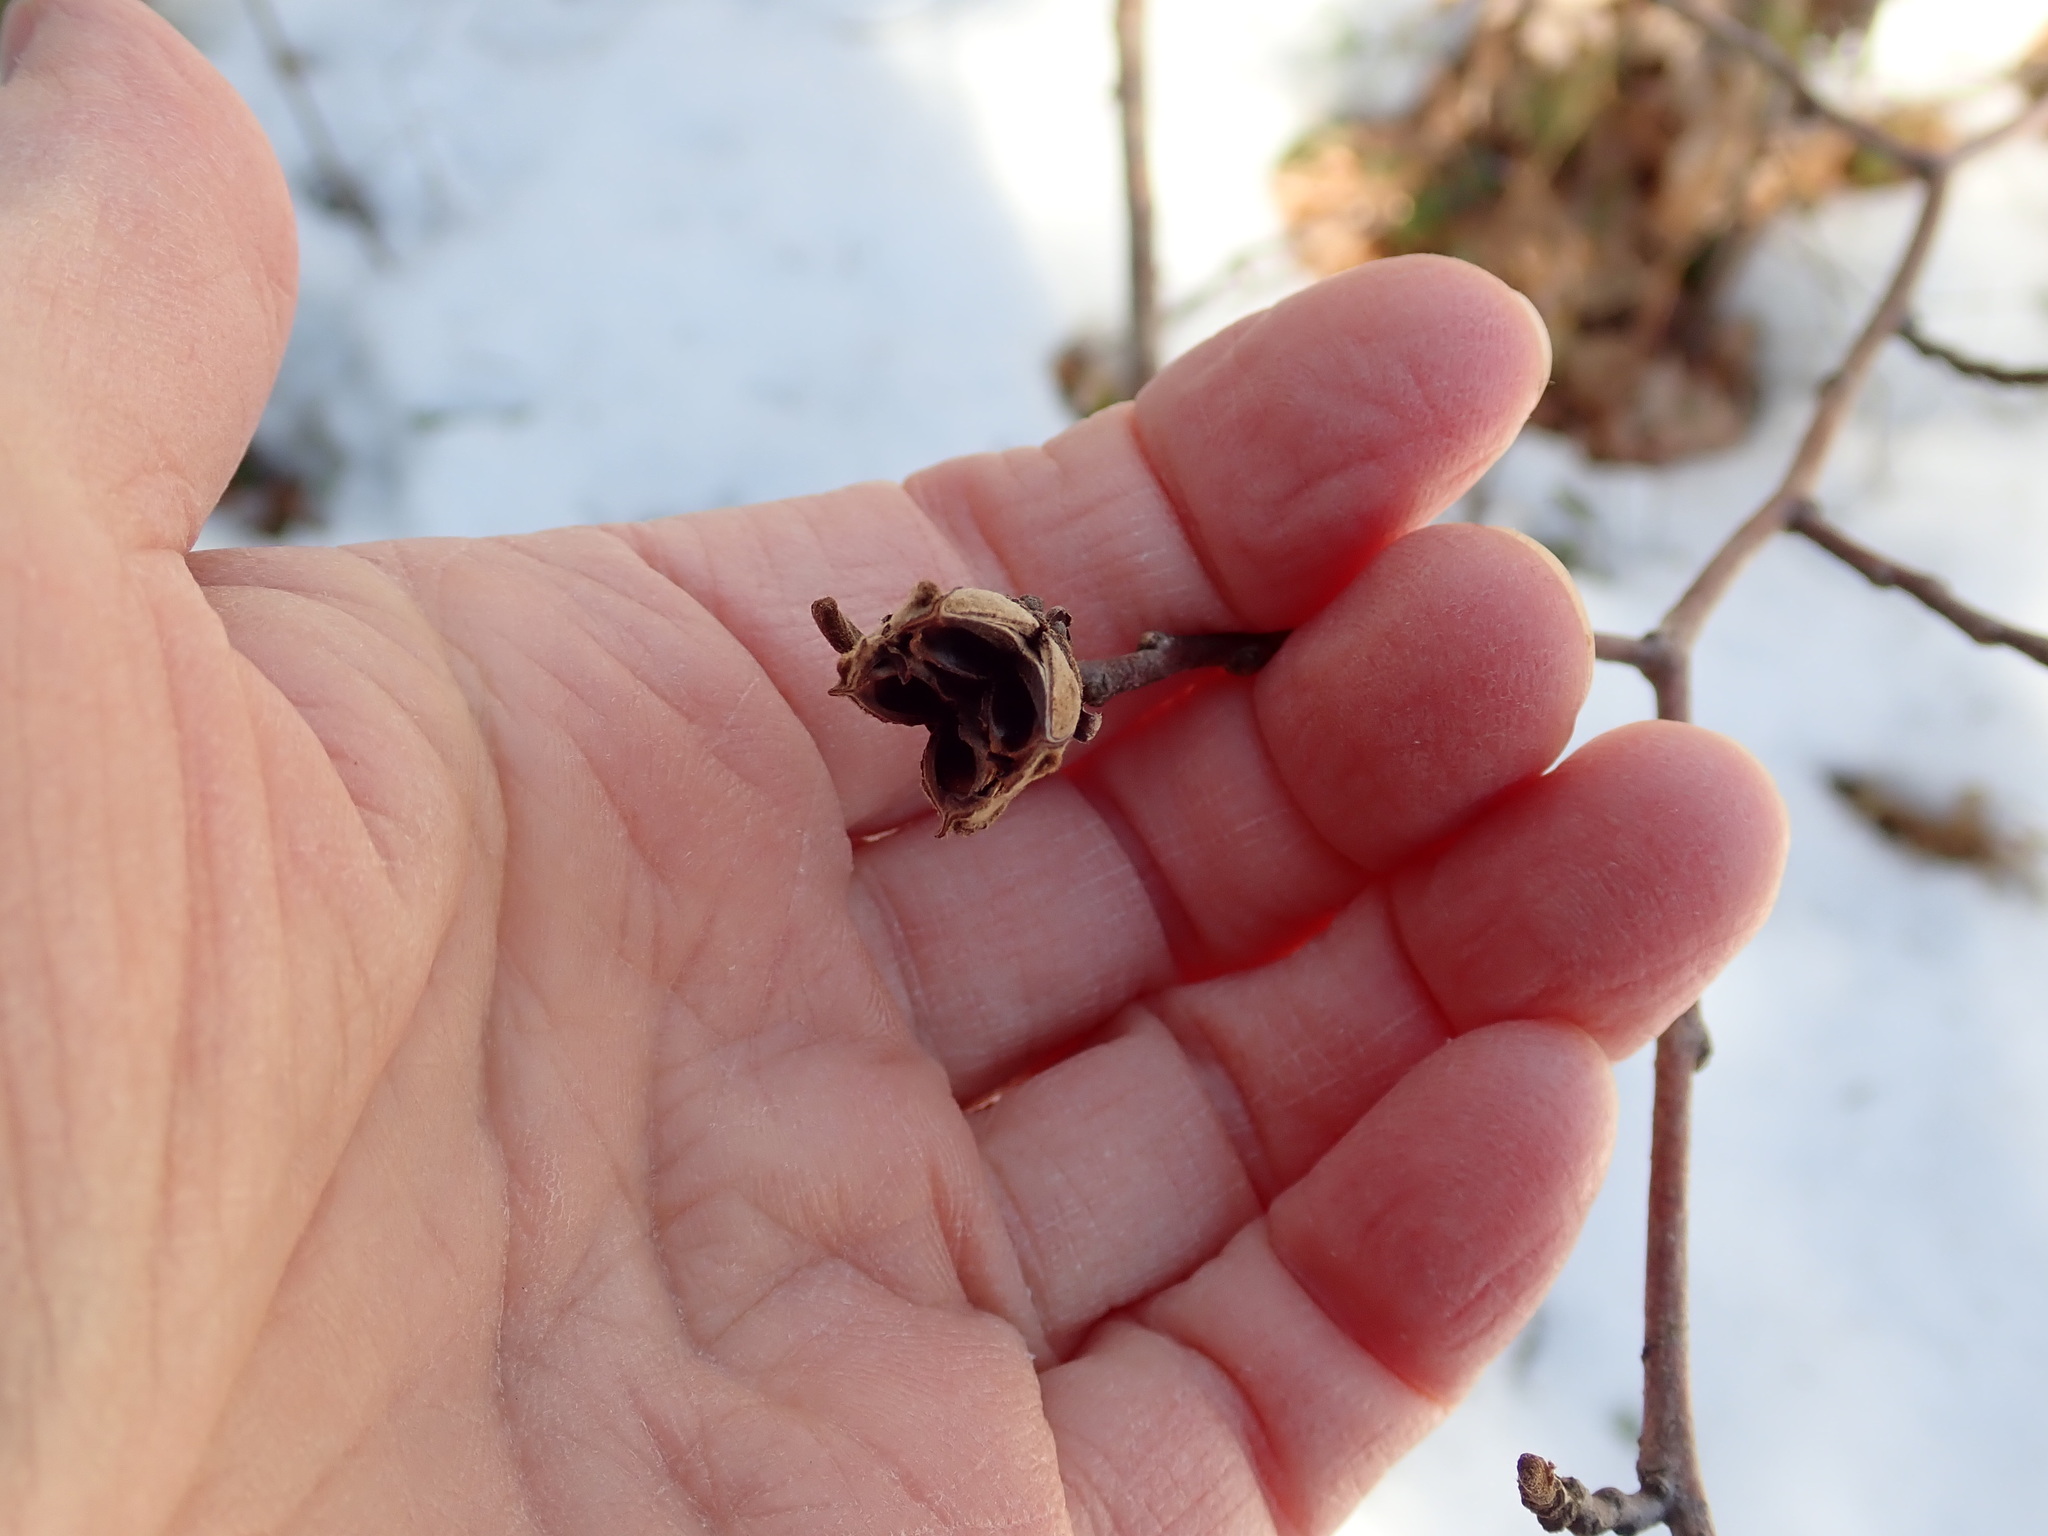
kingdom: Plantae
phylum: Tracheophyta
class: Magnoliopsida
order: Saxifragales
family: Hamamelidaceae
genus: Hamamelis
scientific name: Hamamelis virginiana
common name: Witch-hazel
